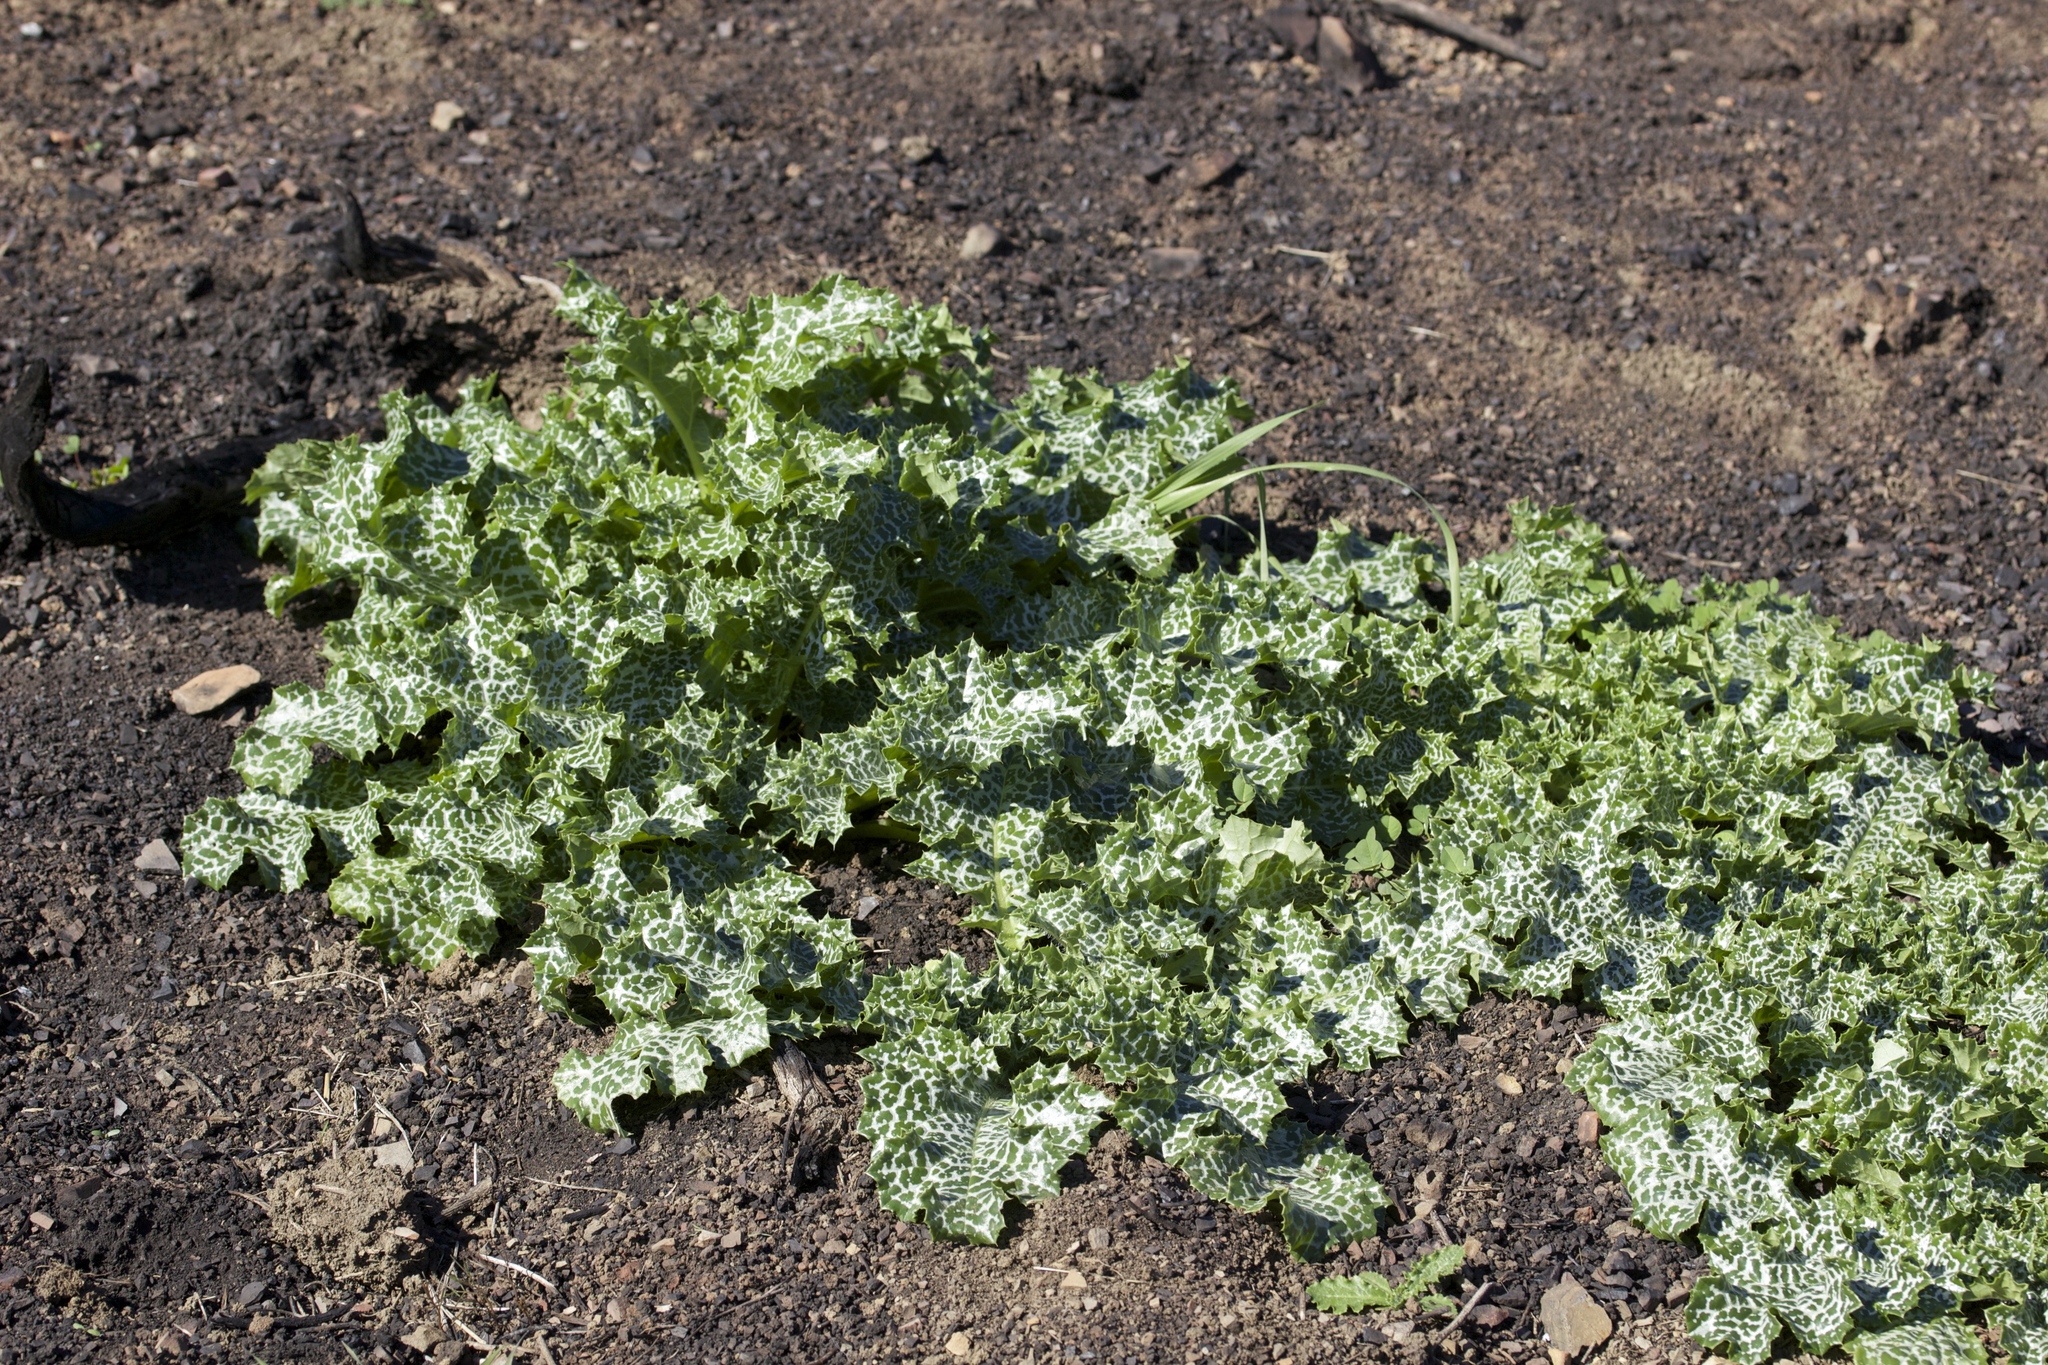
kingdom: Plantae
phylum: Tracheophyta
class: Magnoliopsida
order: Asterales
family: Asteraceae
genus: Silybum
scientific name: Silybum marianum
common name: Milk thistle
